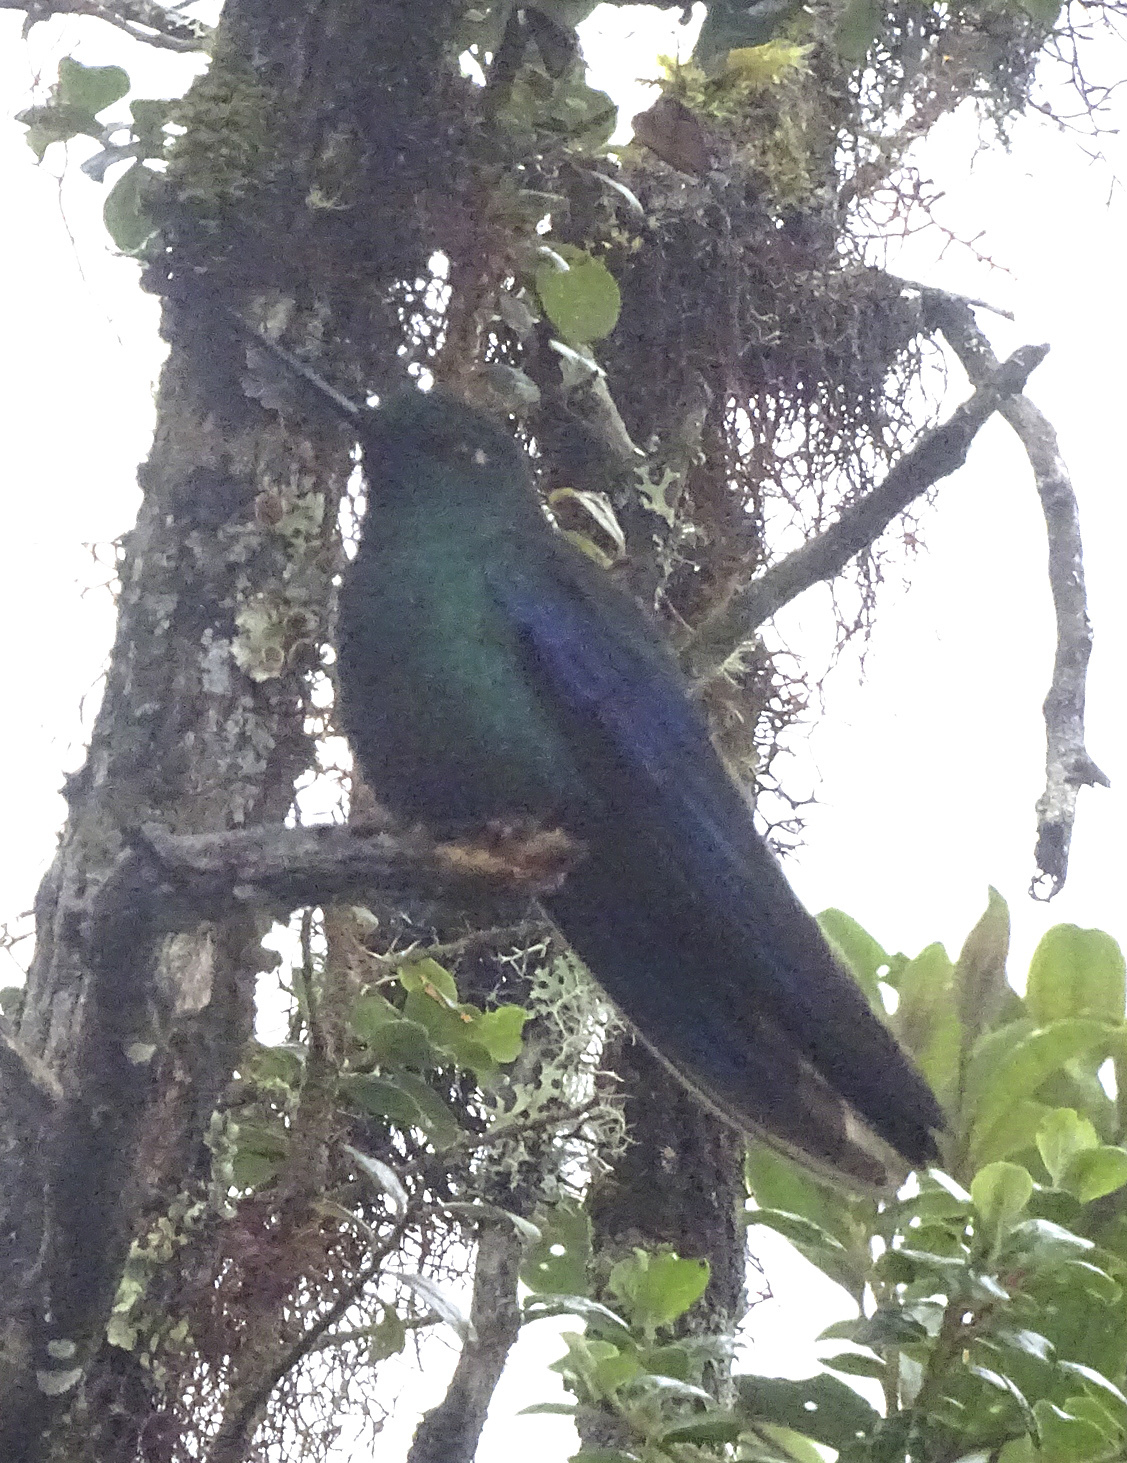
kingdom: Animalia
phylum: Chordata
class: Aves
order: Apodiformes
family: Trochilidae
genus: Pterophanes
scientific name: Pterophanes cyanopterus
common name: Great sapphirewing
